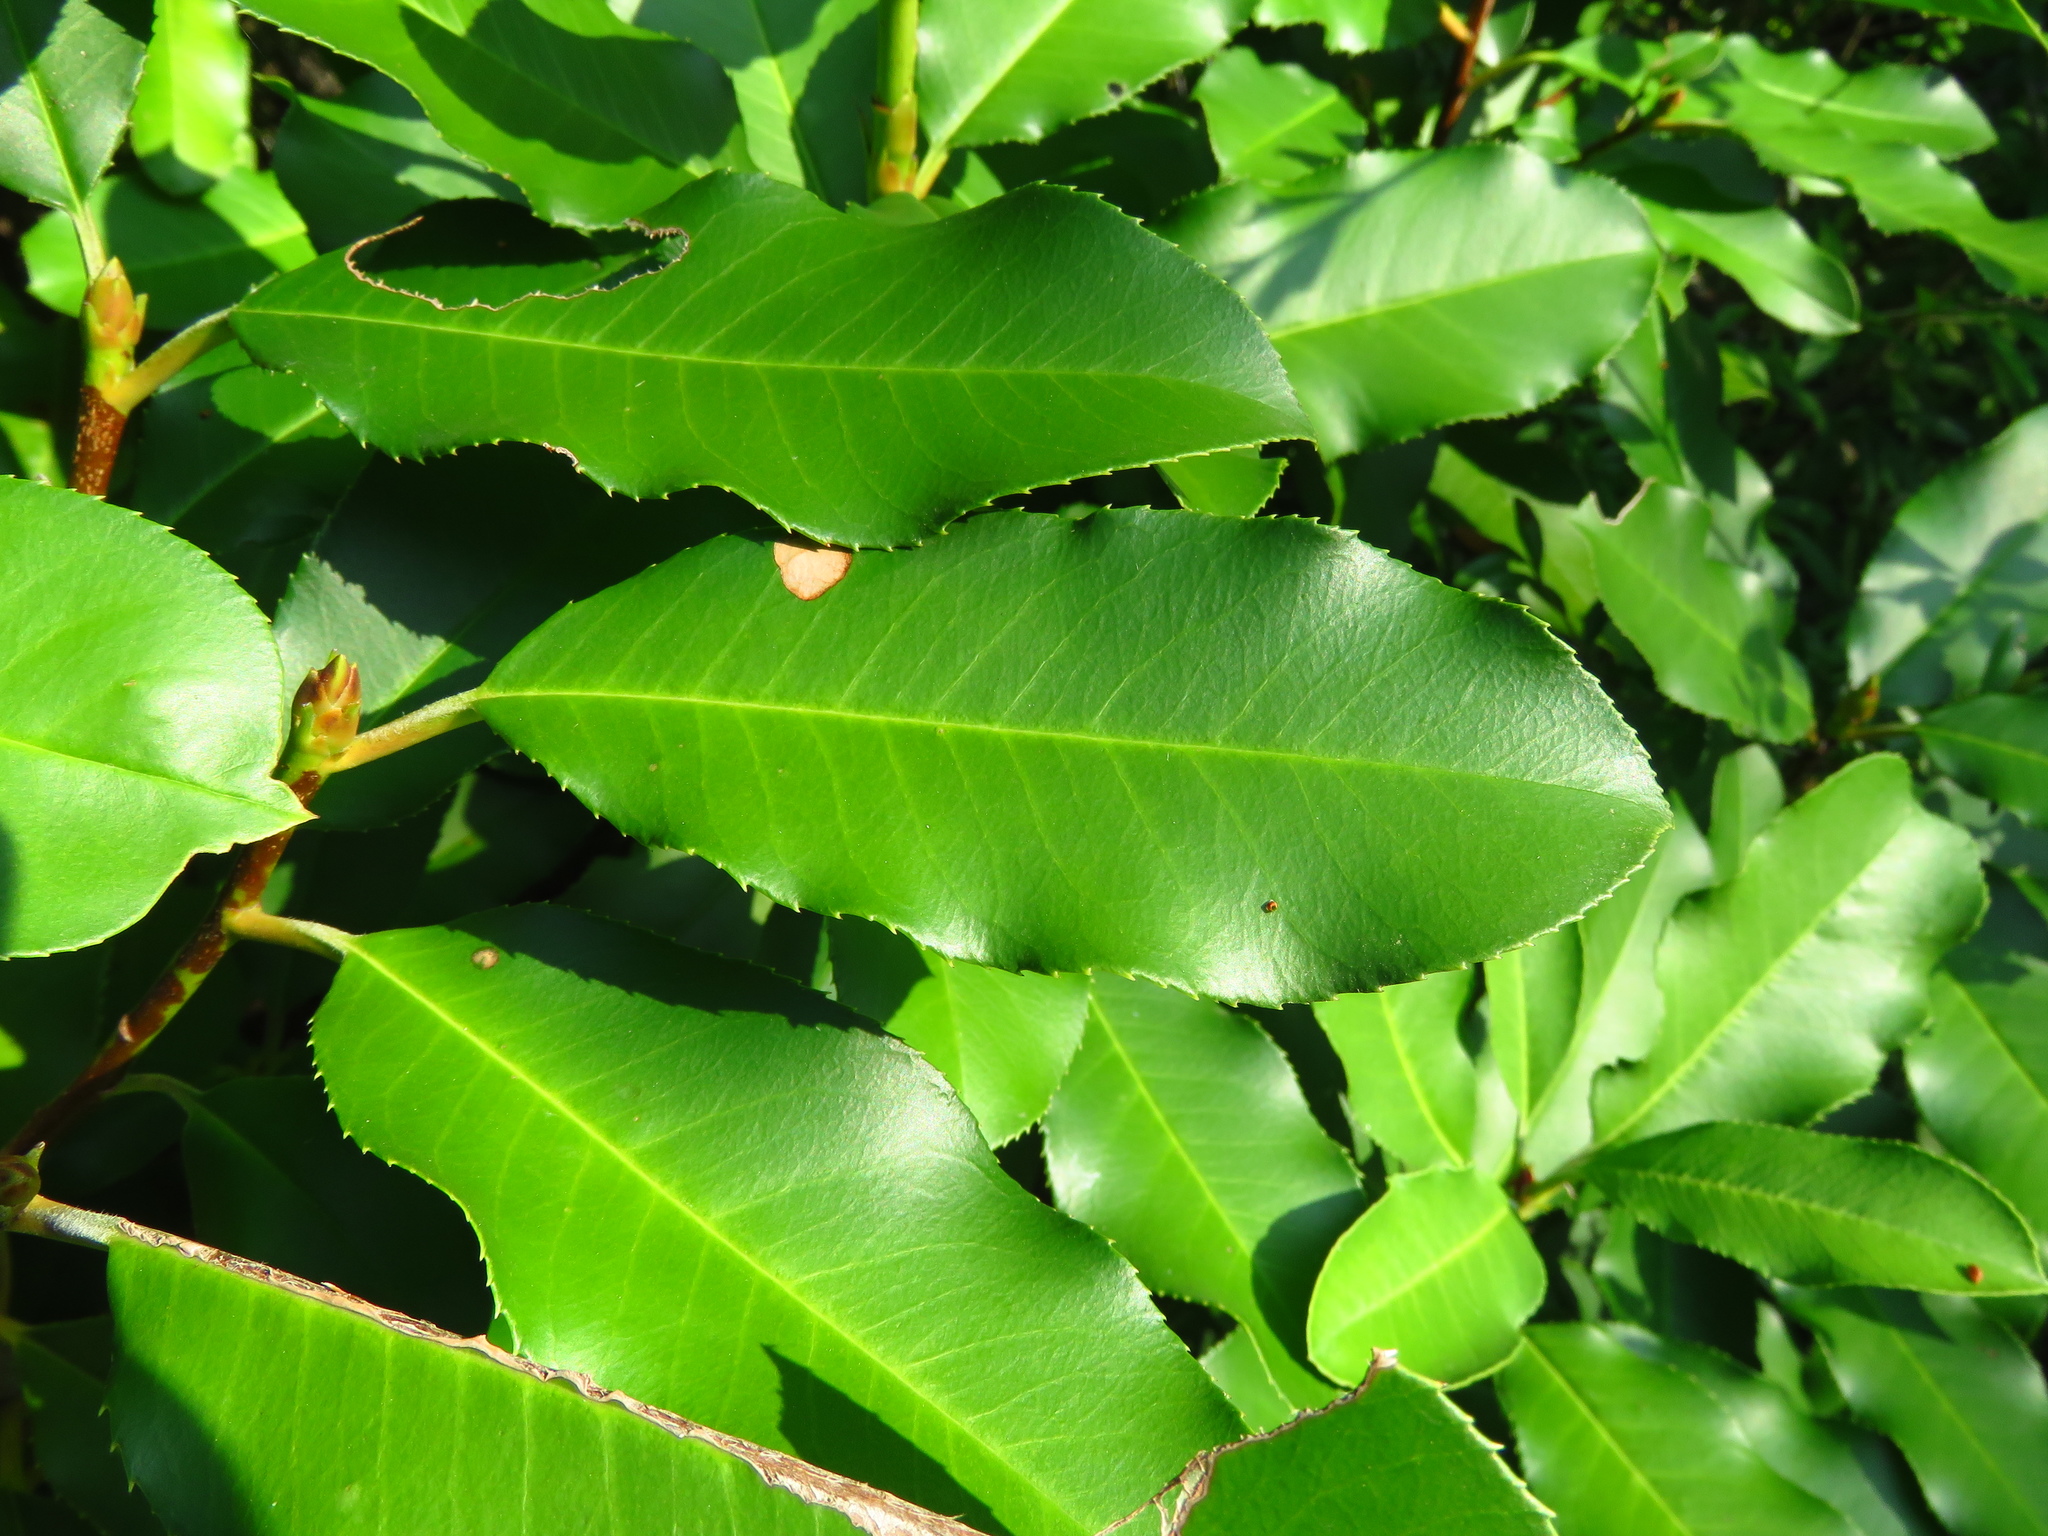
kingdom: Plantae
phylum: Tracheophyta
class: Magnoliopsida
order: Rosales
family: Rosaceae
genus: Photinia
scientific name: Photinia serratifolia
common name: Taiwanese photinia
